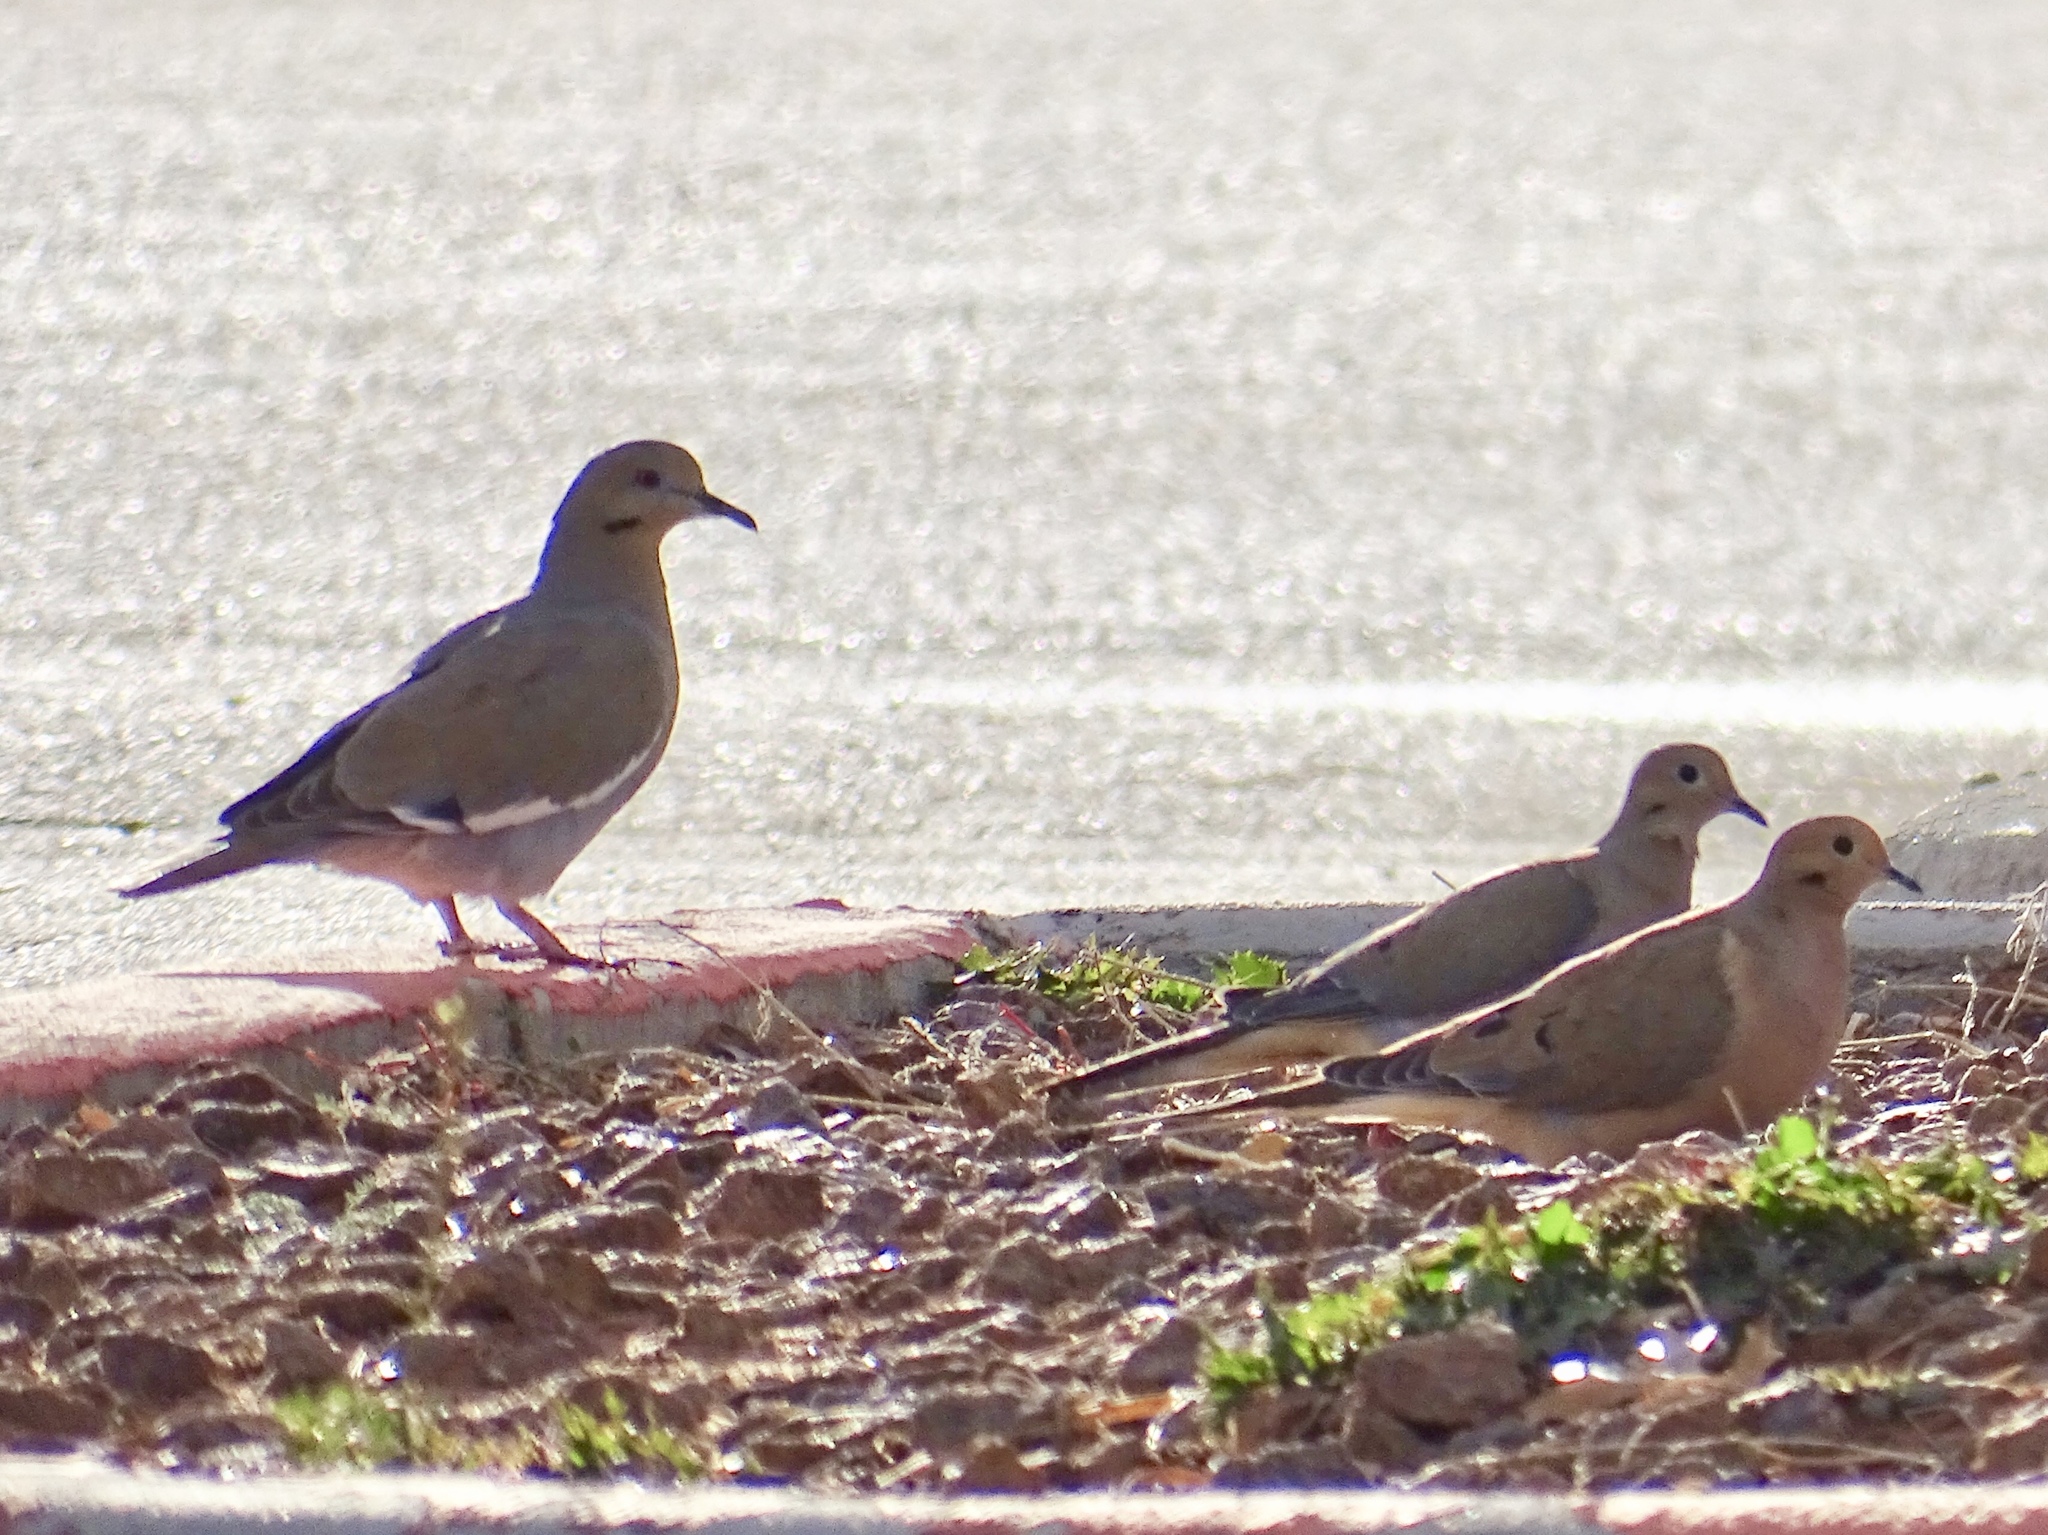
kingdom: Animalia
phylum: Chordata
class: Aves
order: Columbiformes
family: Columbidae
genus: Zenaida
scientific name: Zenaida asiatica
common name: White-winged dove
